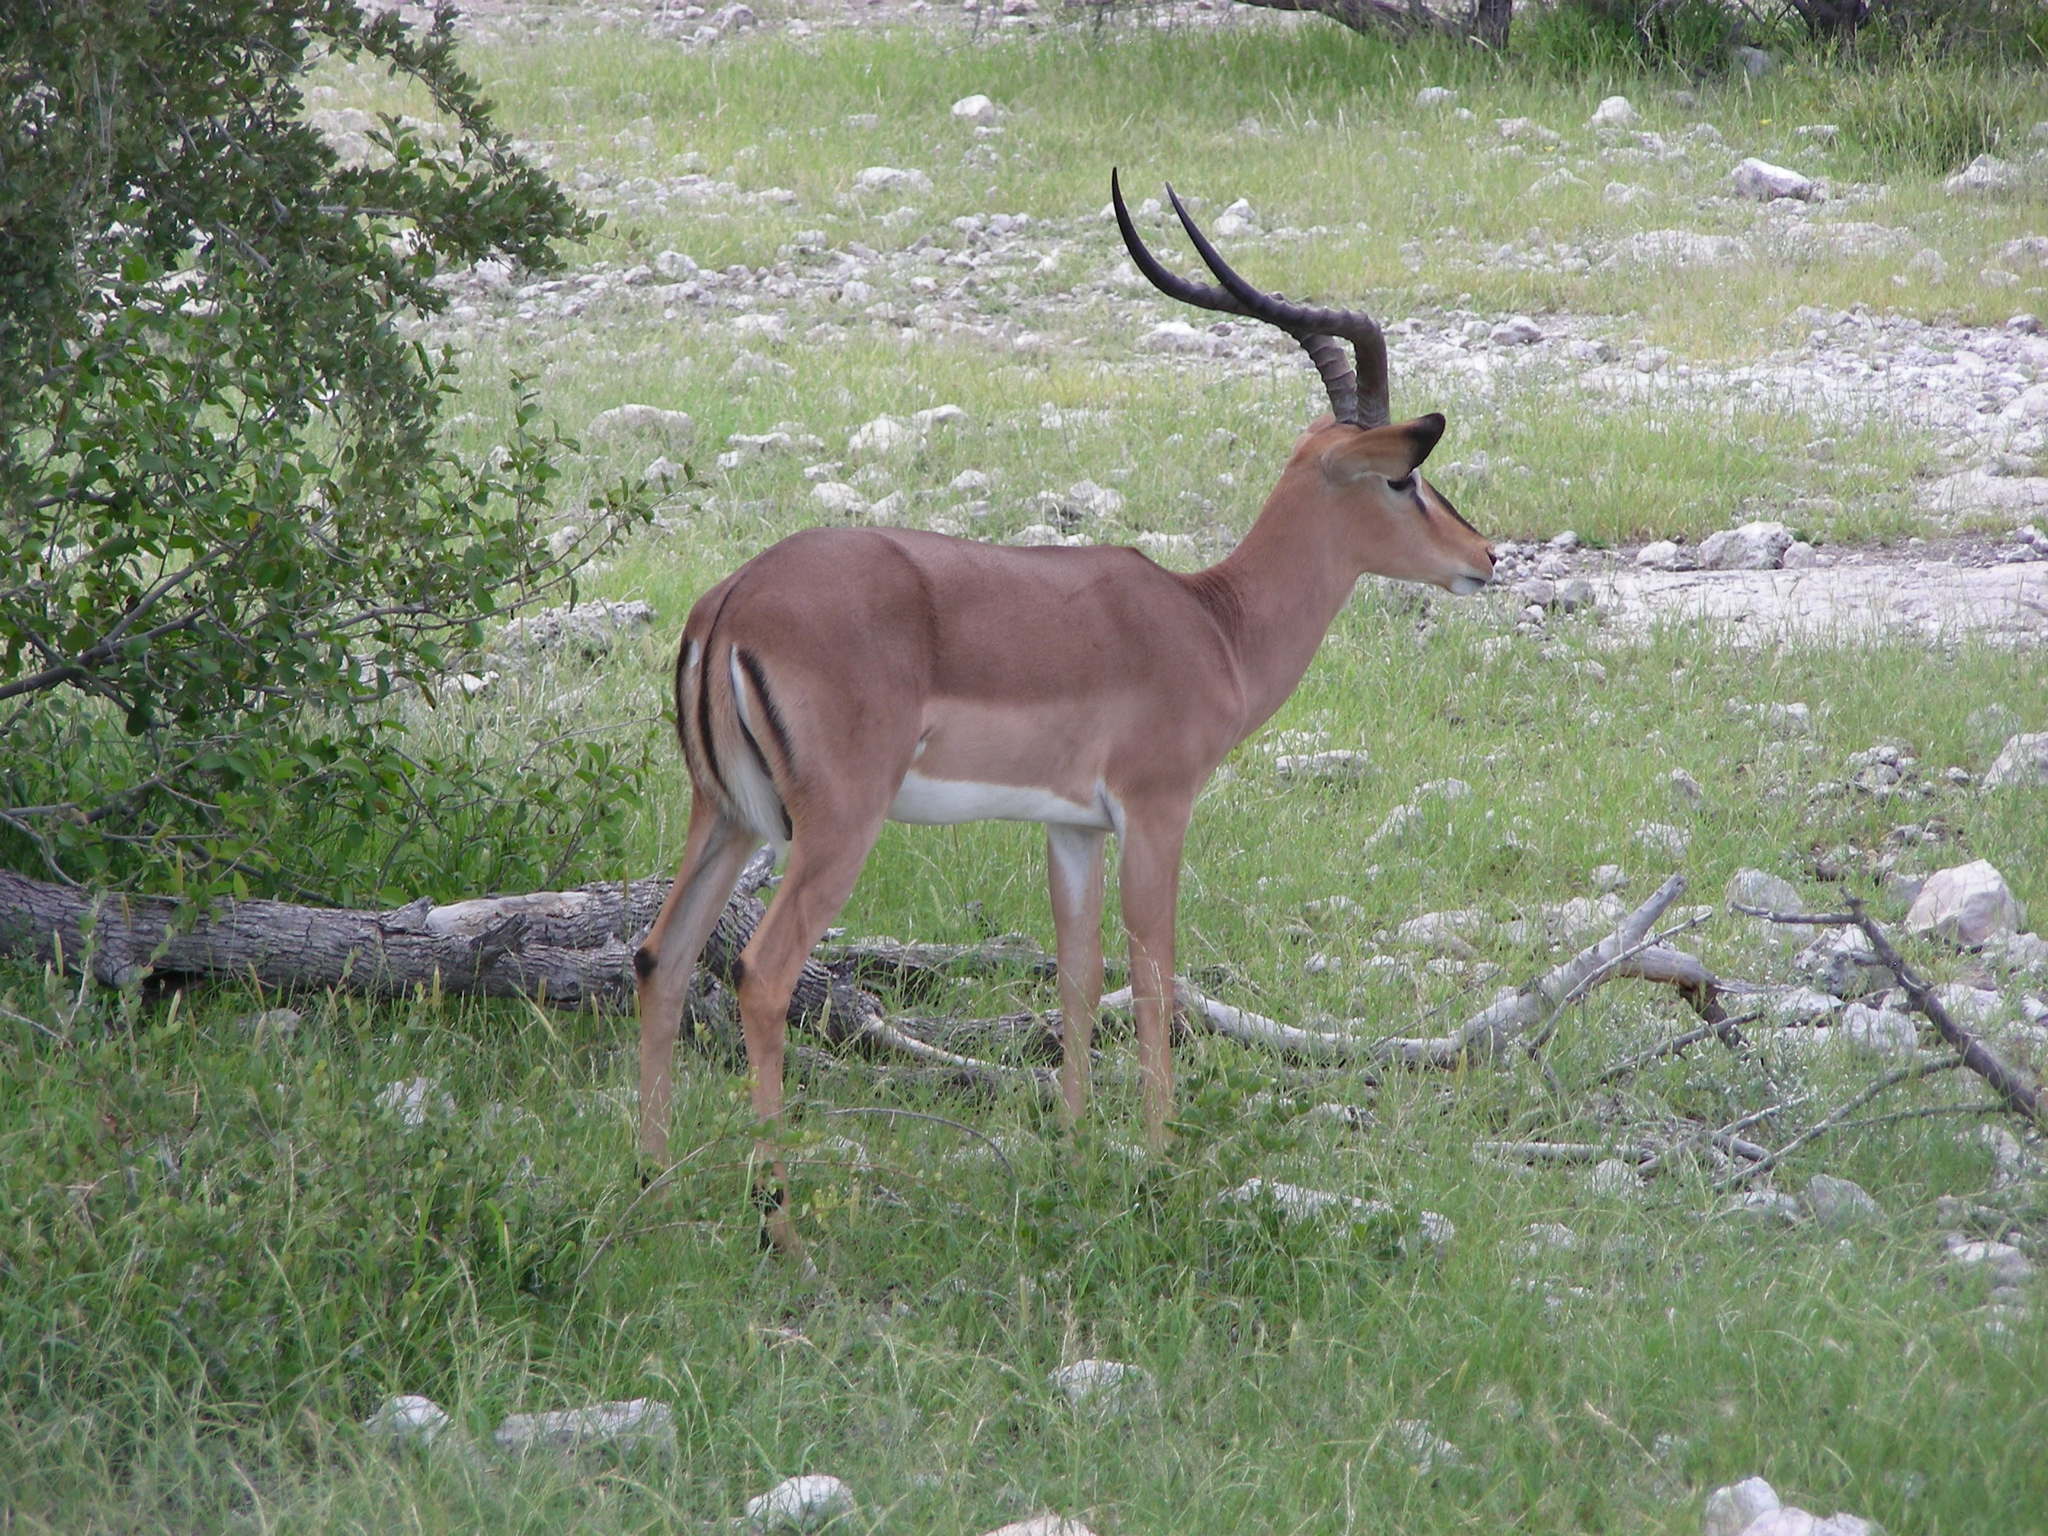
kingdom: Animalia
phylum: Chordata
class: Mammalia
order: Artiodactyla
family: Bovidae
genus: Aepyceros
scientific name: Aepyceros melampus
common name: Impala
